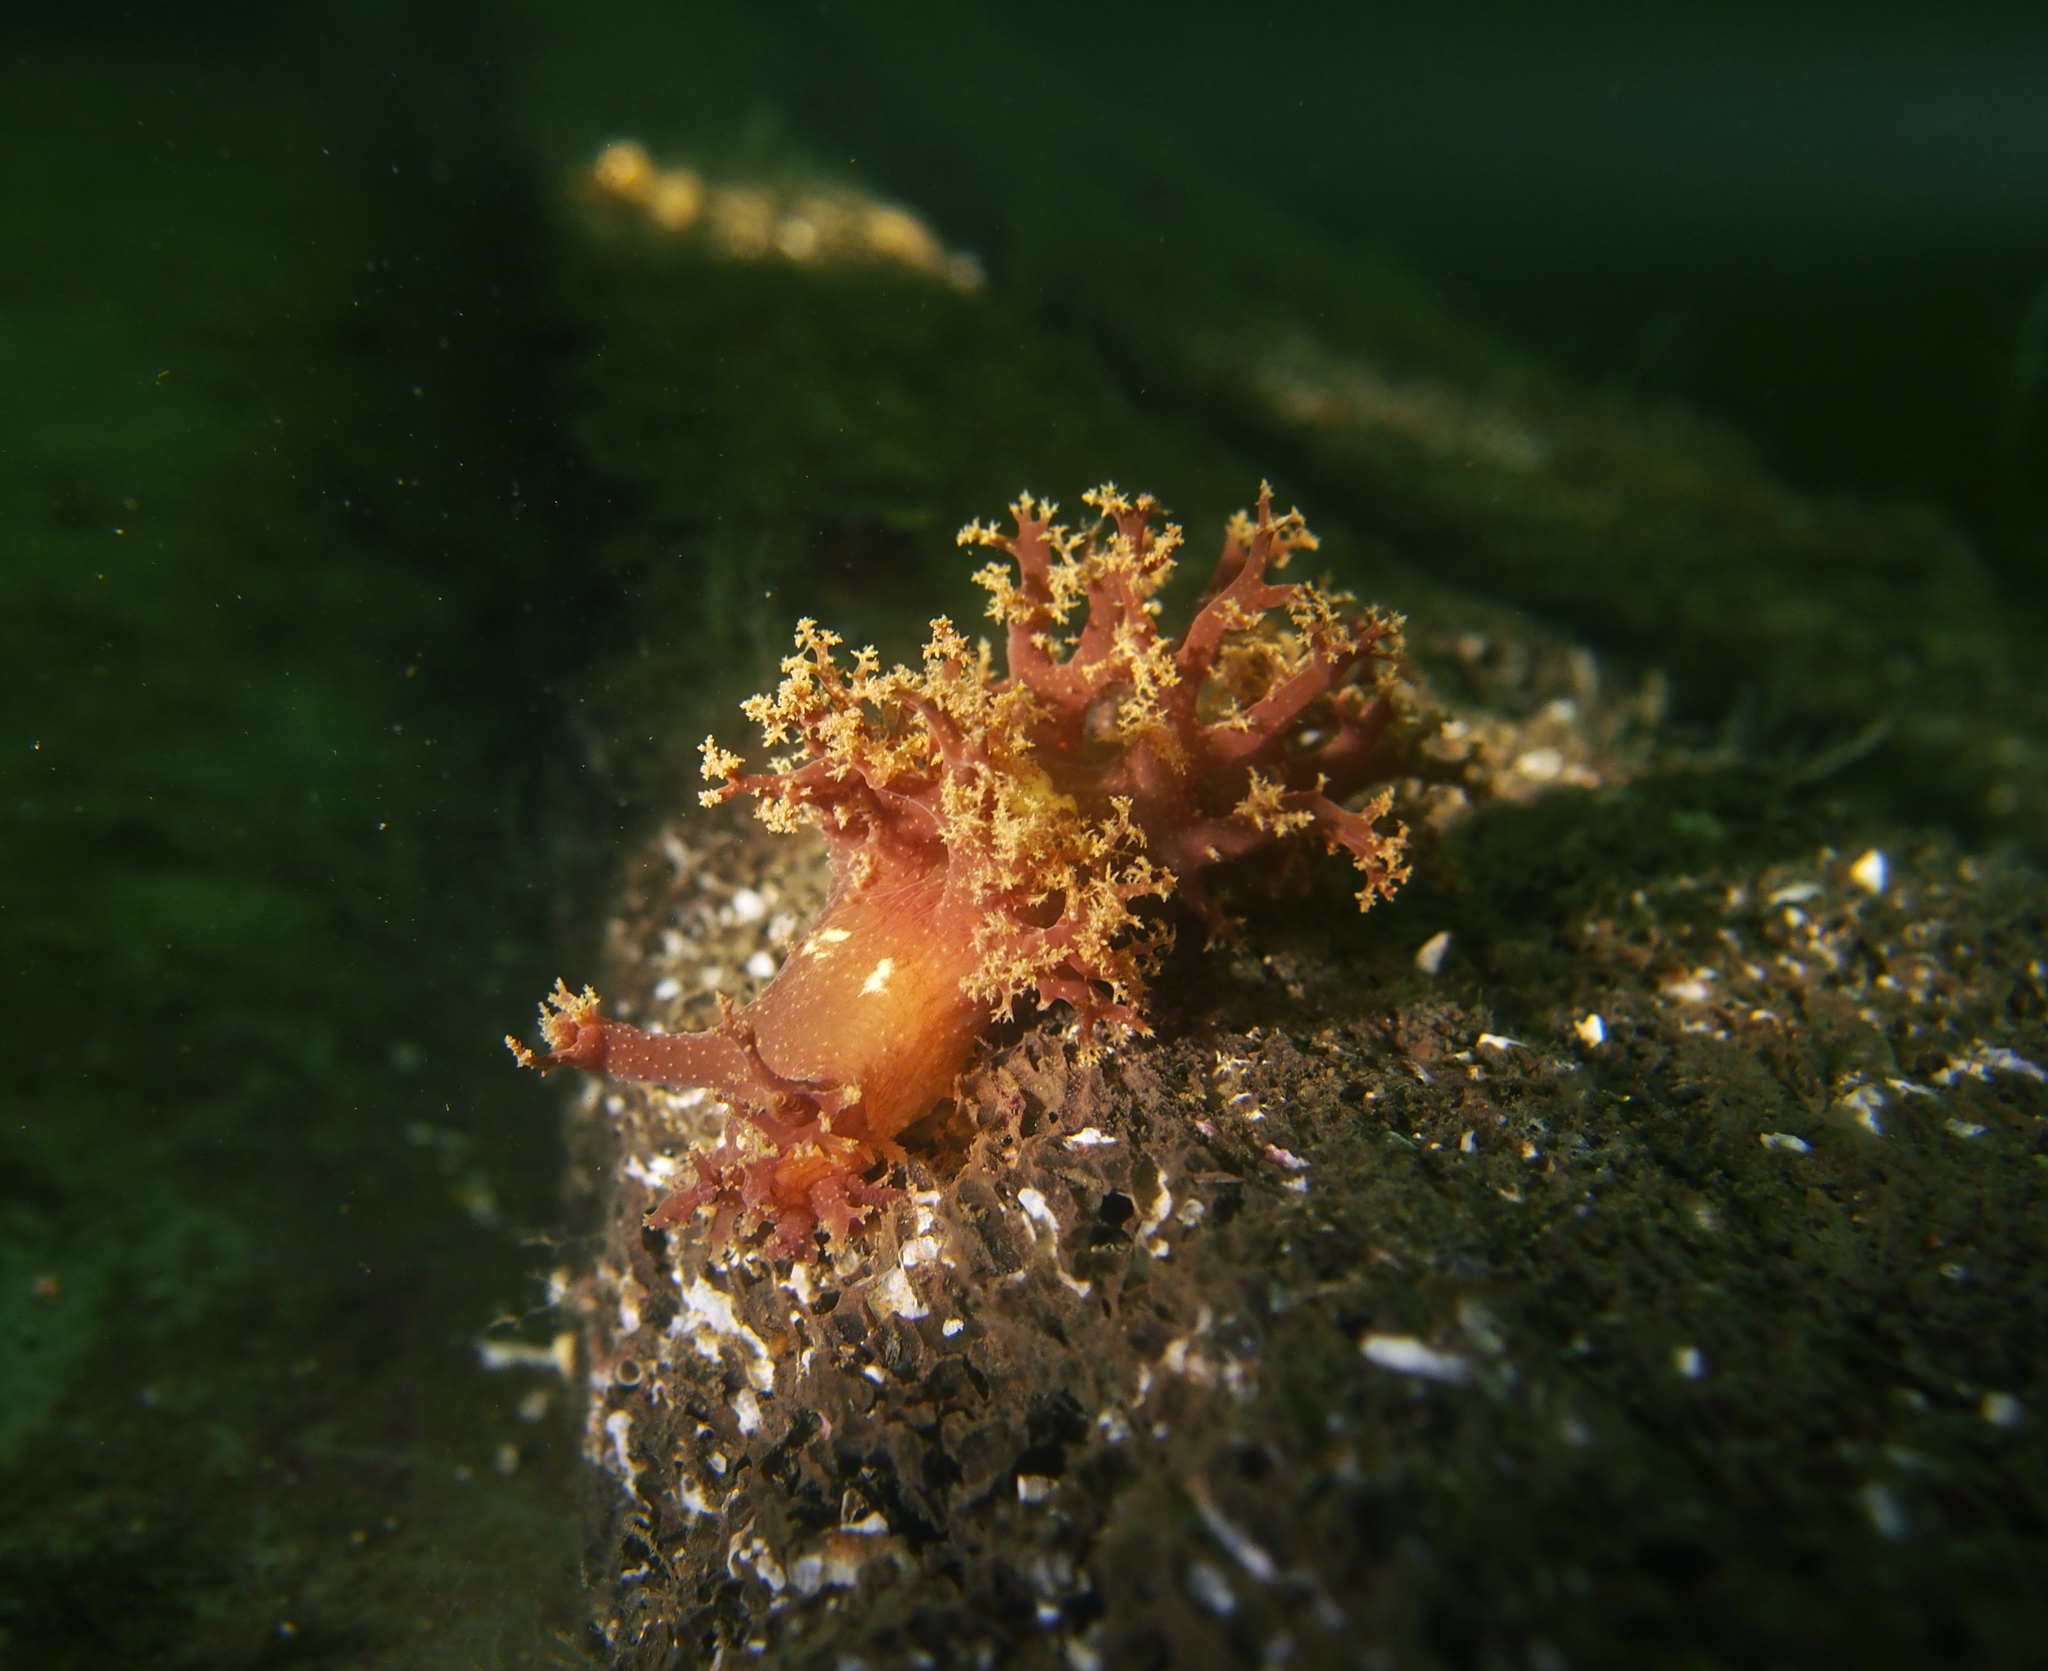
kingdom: Animalia
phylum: Mollusca
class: Gastropoda
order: Nudibranchia
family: Dendronotidae
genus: Dendronotus
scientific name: Dendronotus lacteus
